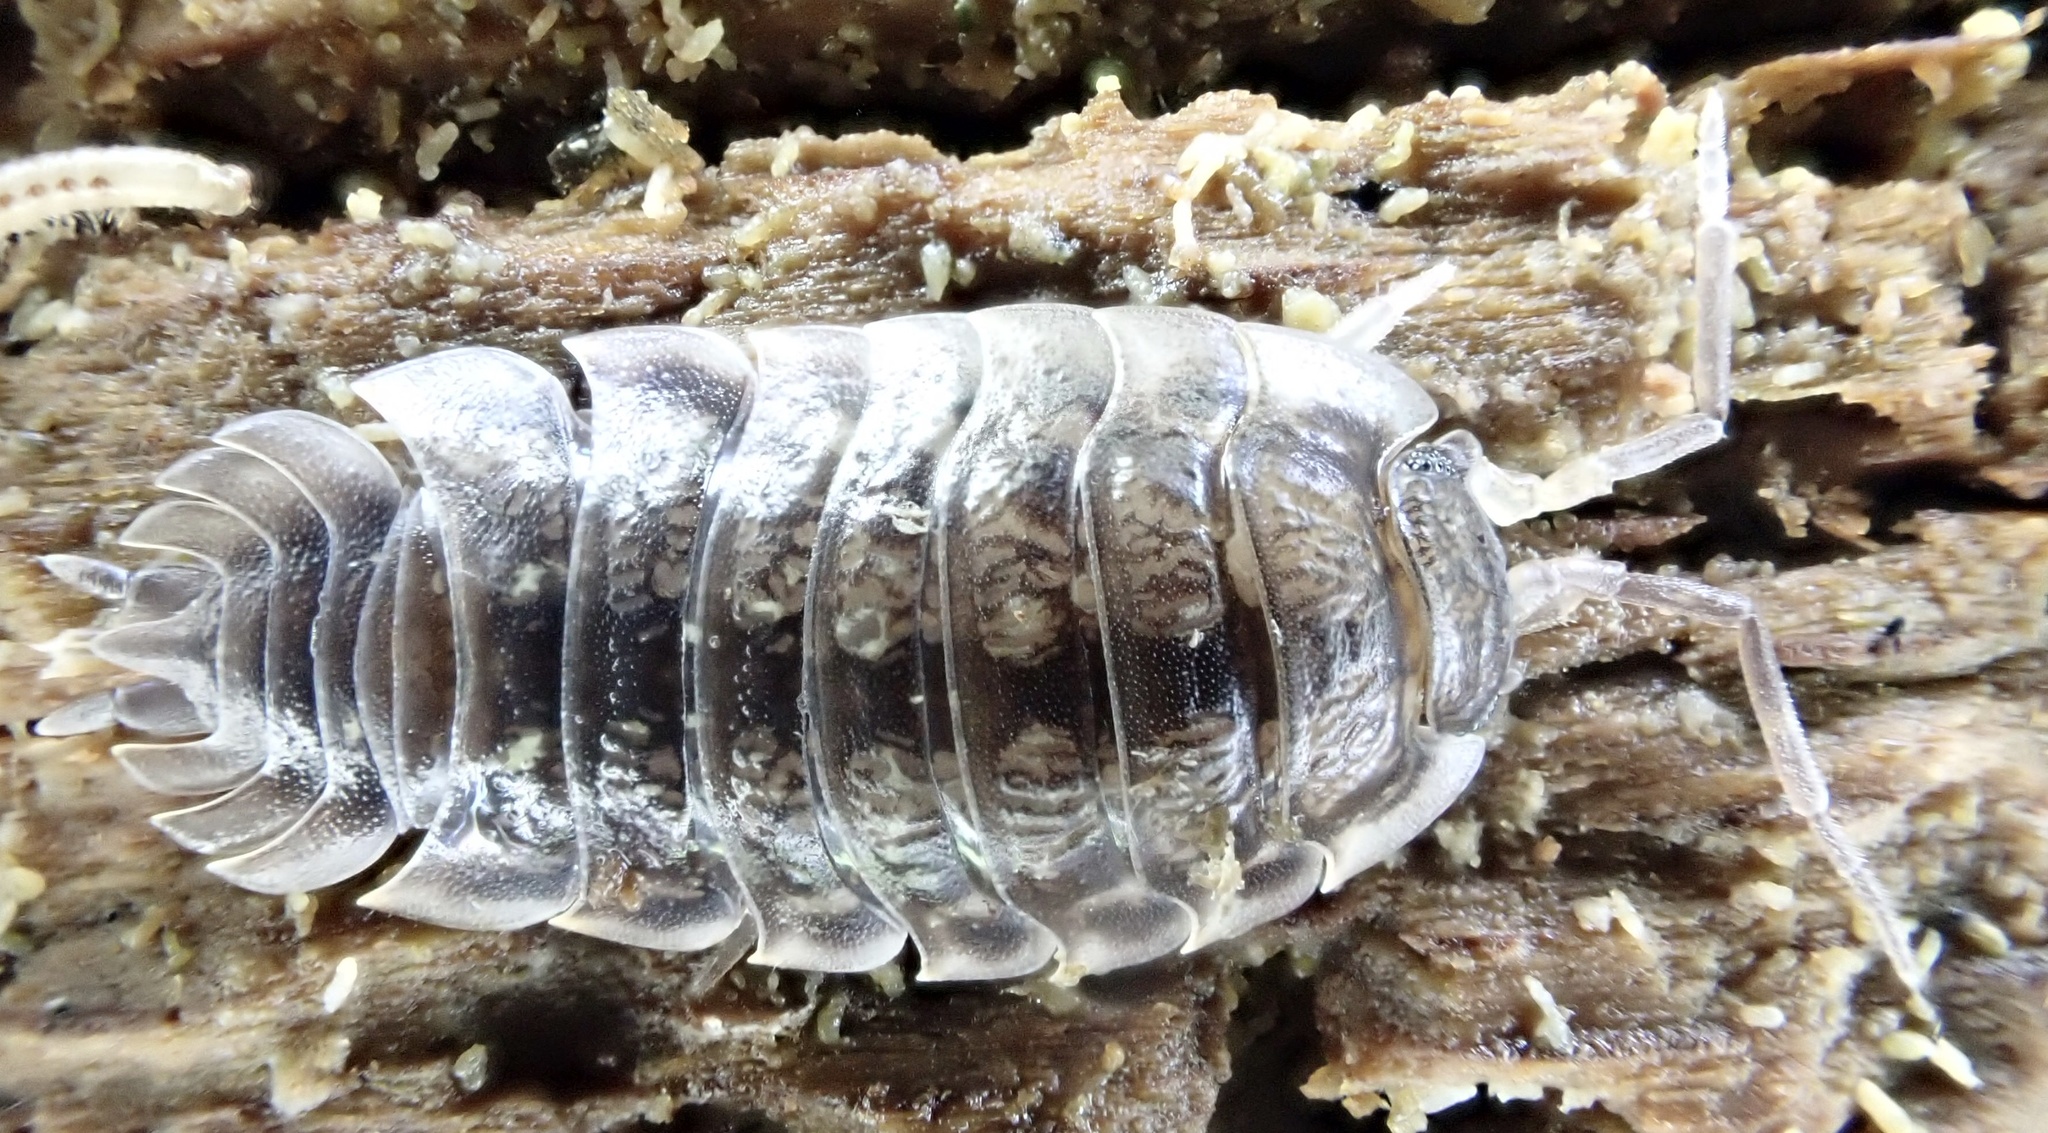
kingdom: Animalia
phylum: Arthropoda
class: Malacostraca
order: Isopoda
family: Oniscidae
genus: Oniscus
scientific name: Oniscus asellus
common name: Common shiny woodlouse
